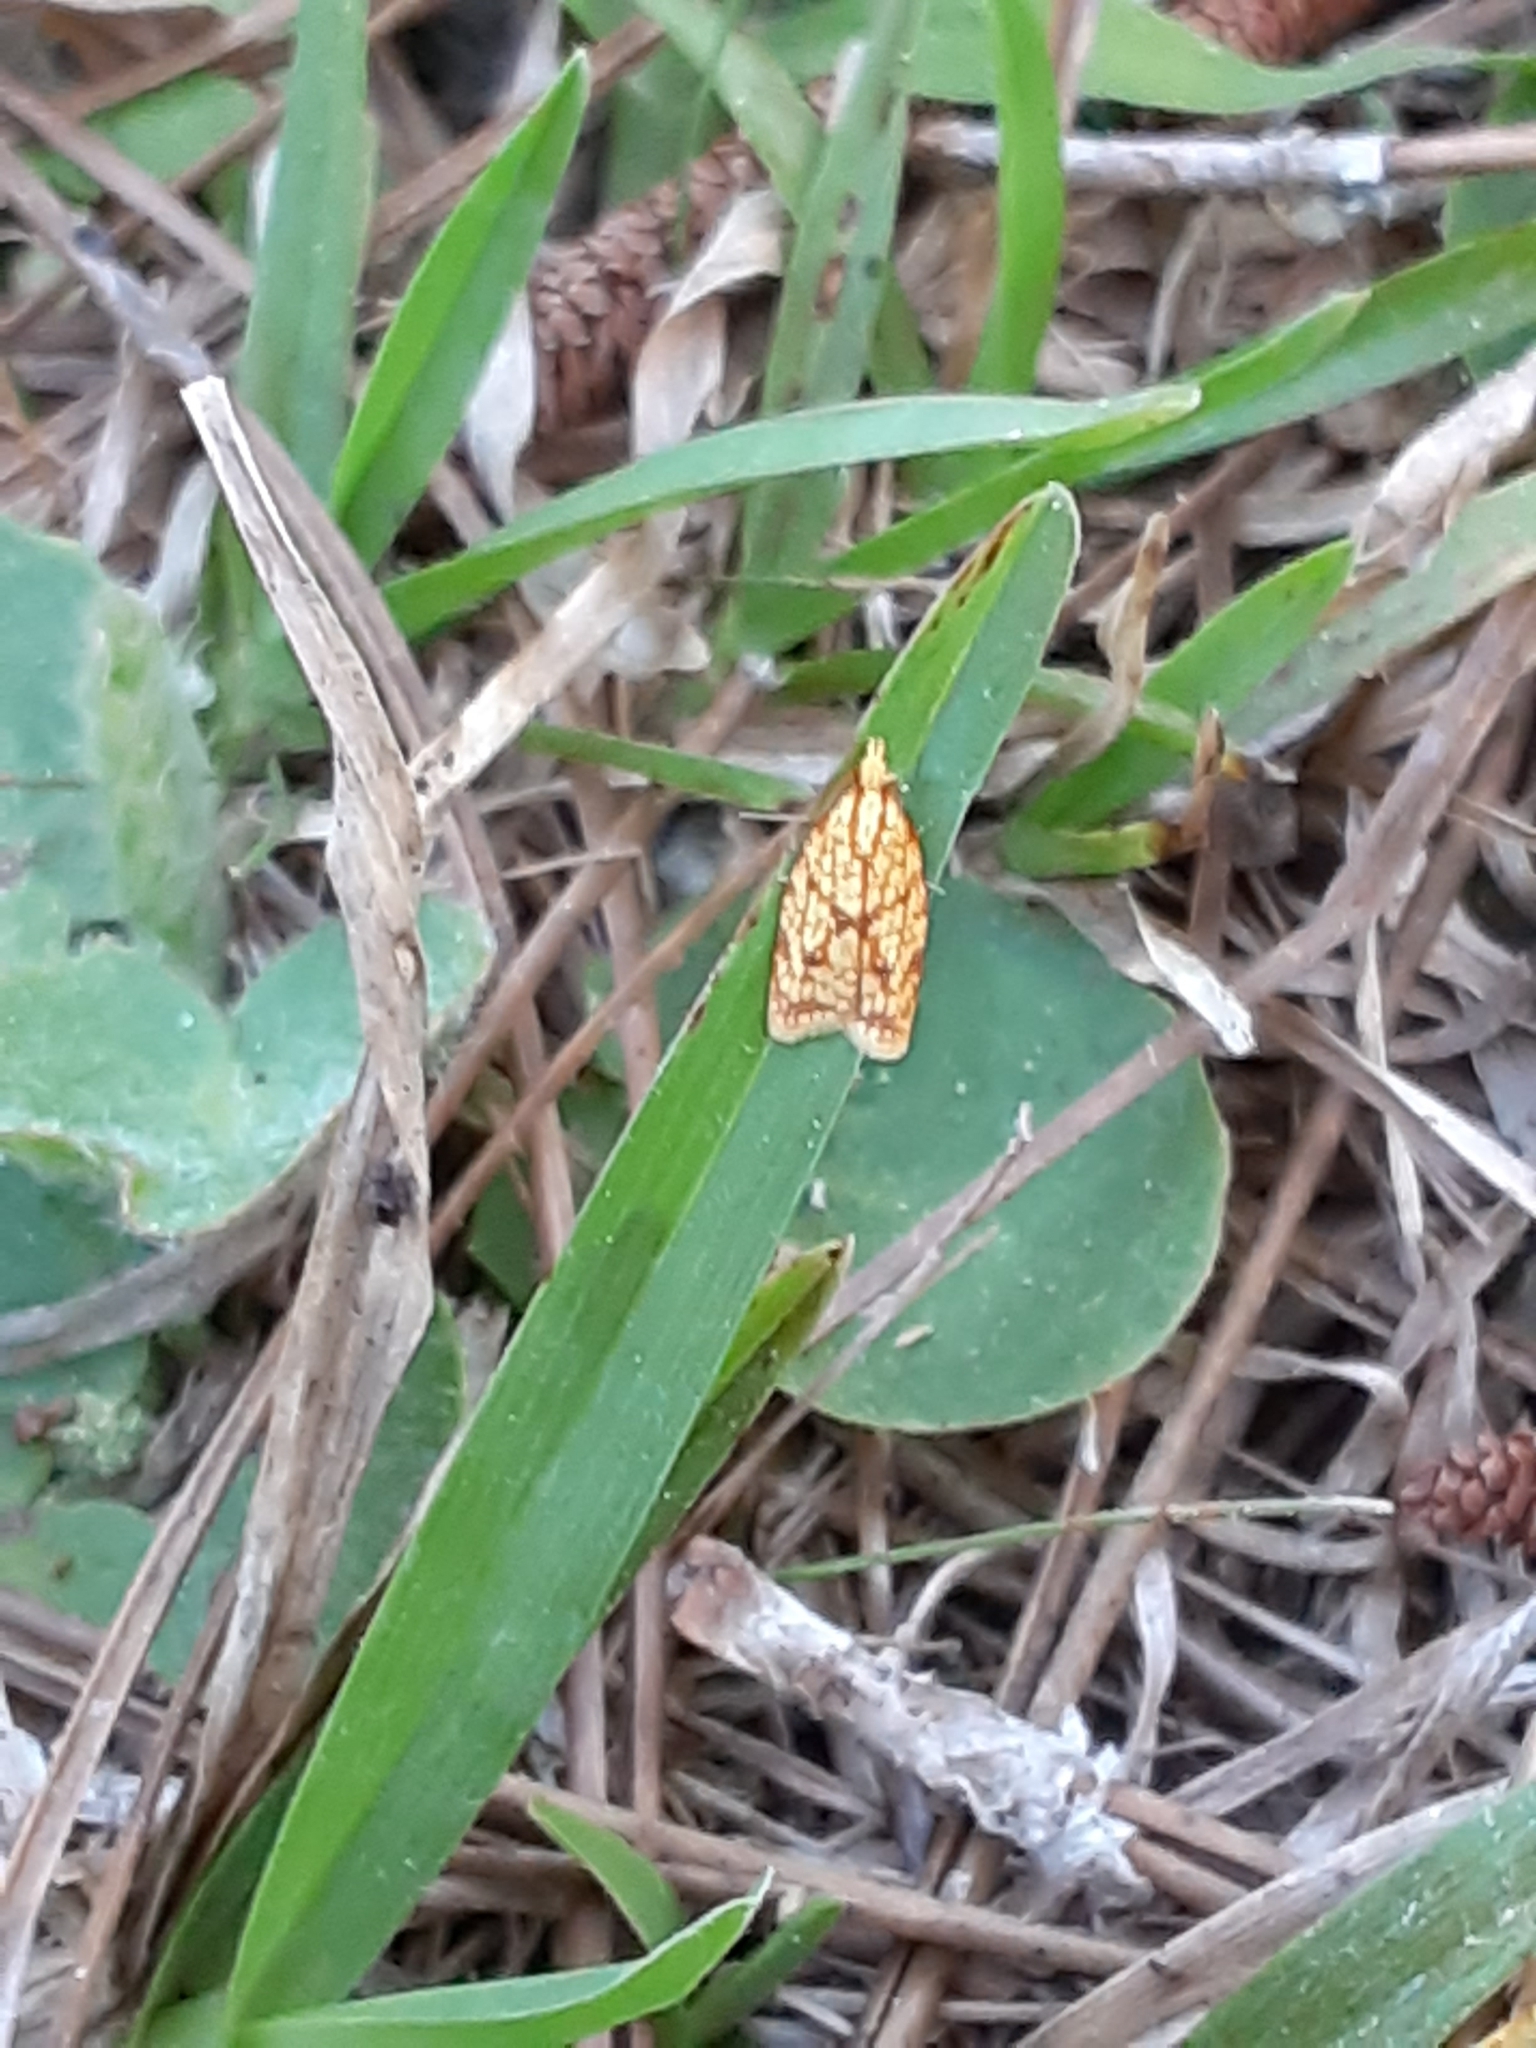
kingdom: Animalia
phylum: Arthropoda
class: Insecta
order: Lepidoptera
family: Tortricidae
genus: Sparganothis
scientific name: Sparganothis sulfureana
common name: Sparganothis fruitworm moth
